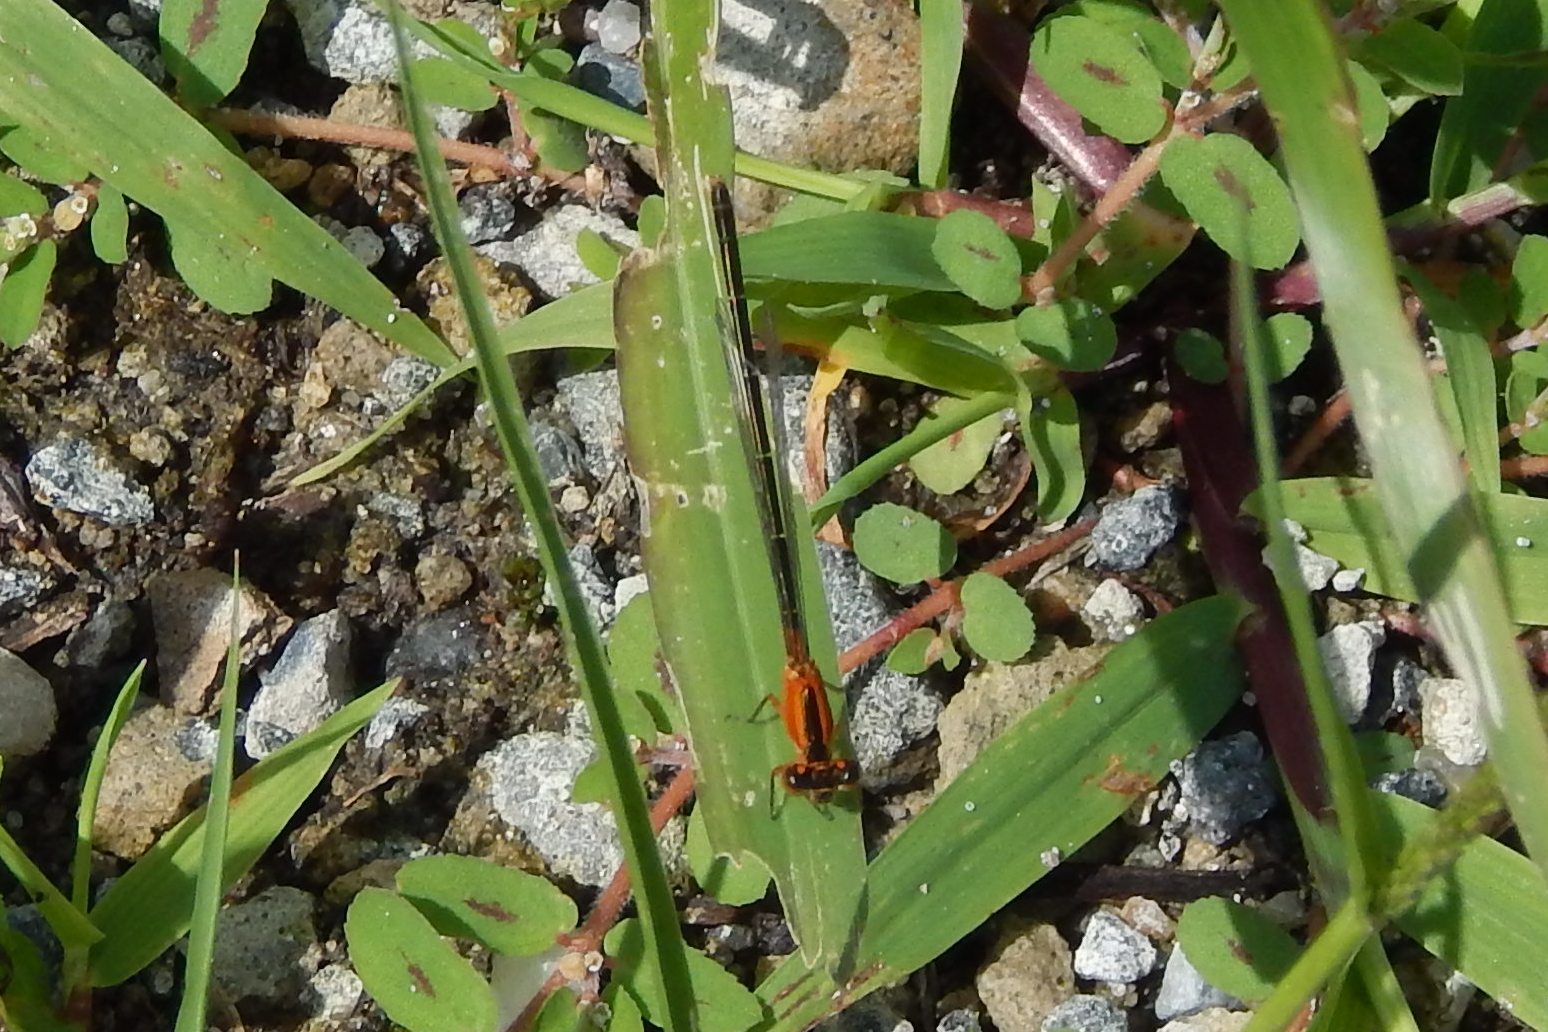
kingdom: Animalia
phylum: Arthropoda
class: Insecta
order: Odonata
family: Coenagrionidae
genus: Ischnura
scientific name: Ischnura ramburii
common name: Rambur's forktail
